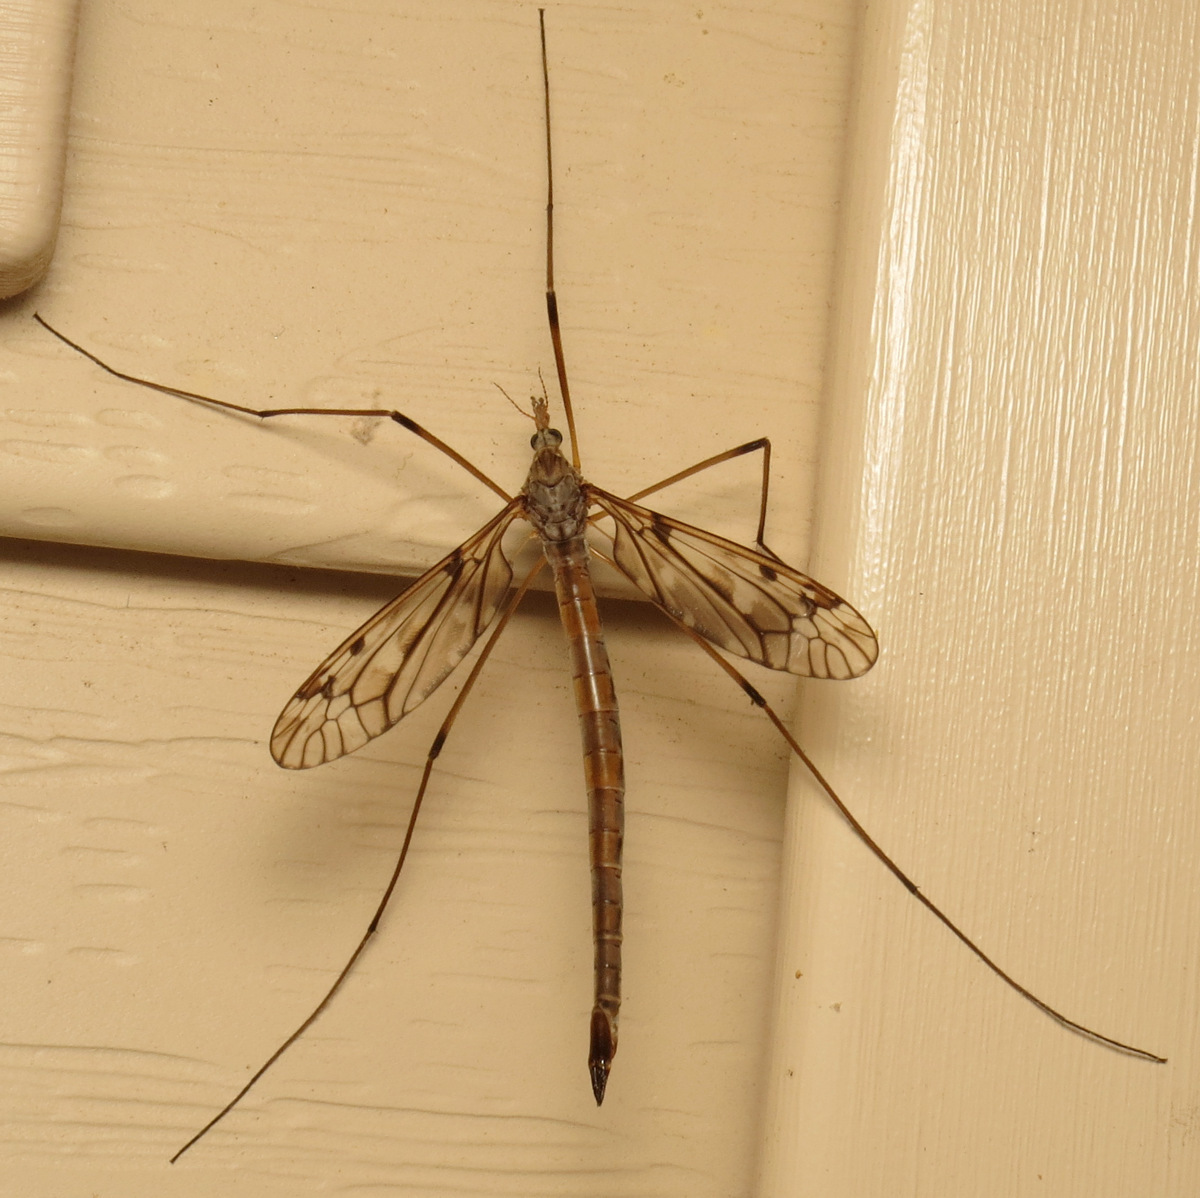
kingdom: Animalia
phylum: Arthropoda
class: Insecta
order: Diptera
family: Tipulidae
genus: Tipula
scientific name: Tipula longiventris
